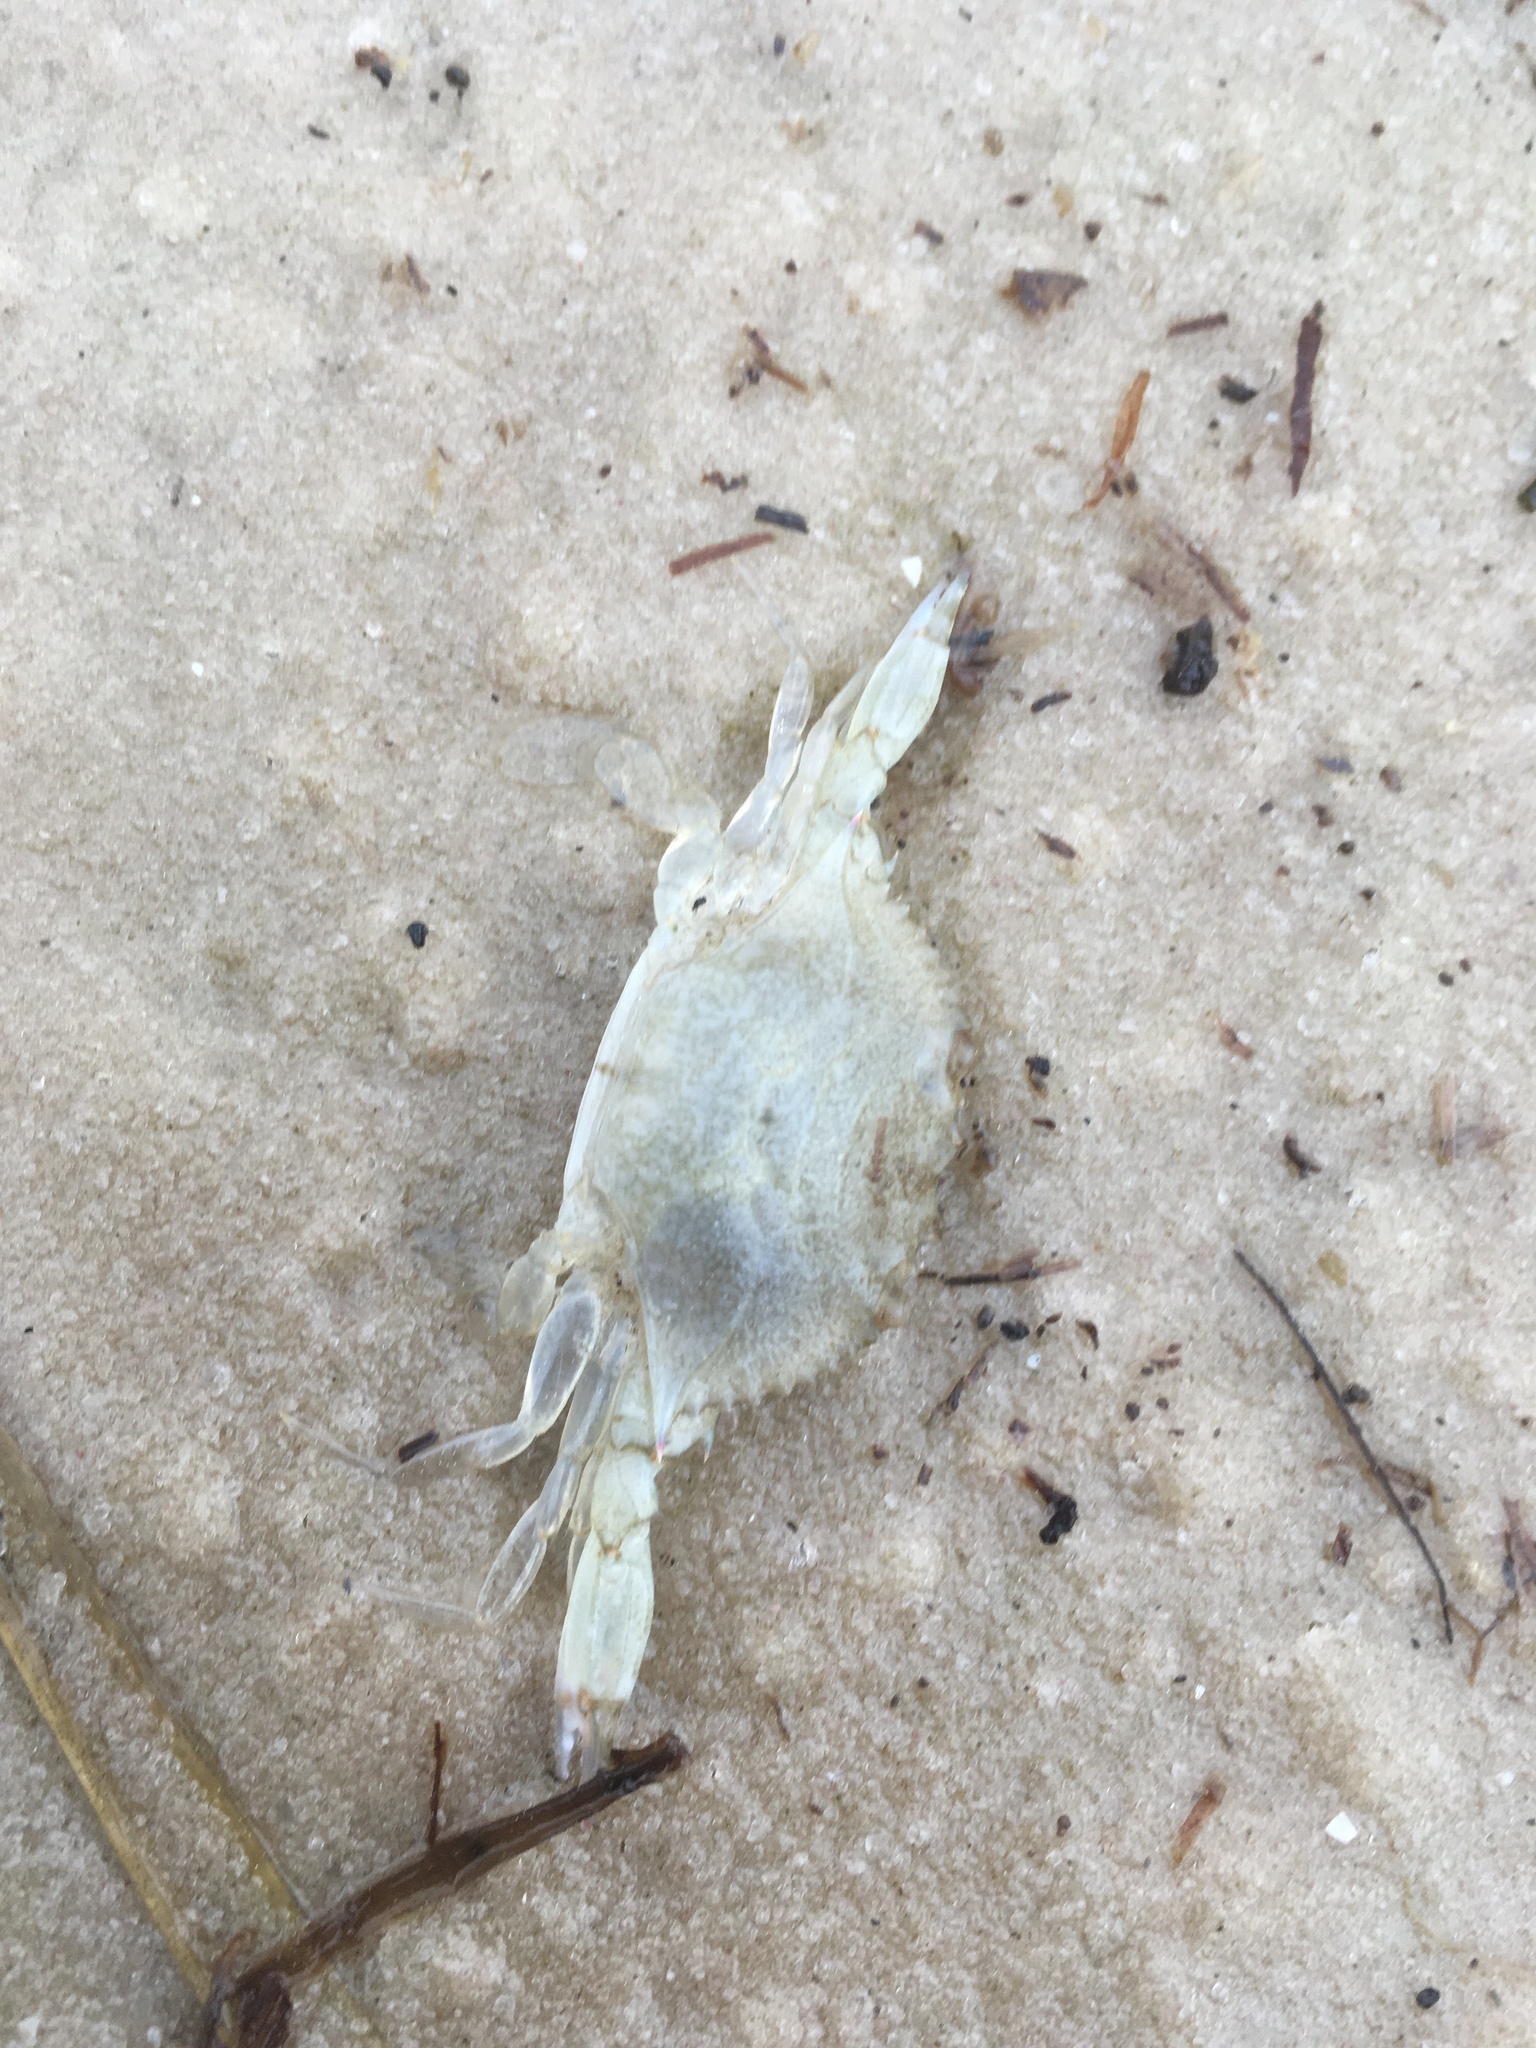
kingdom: Animalia
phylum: Arthropoda
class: Malacostraca
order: Decapoda
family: Portunidae
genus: Callinectes
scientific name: Callinectes sapidus
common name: Blue crab
